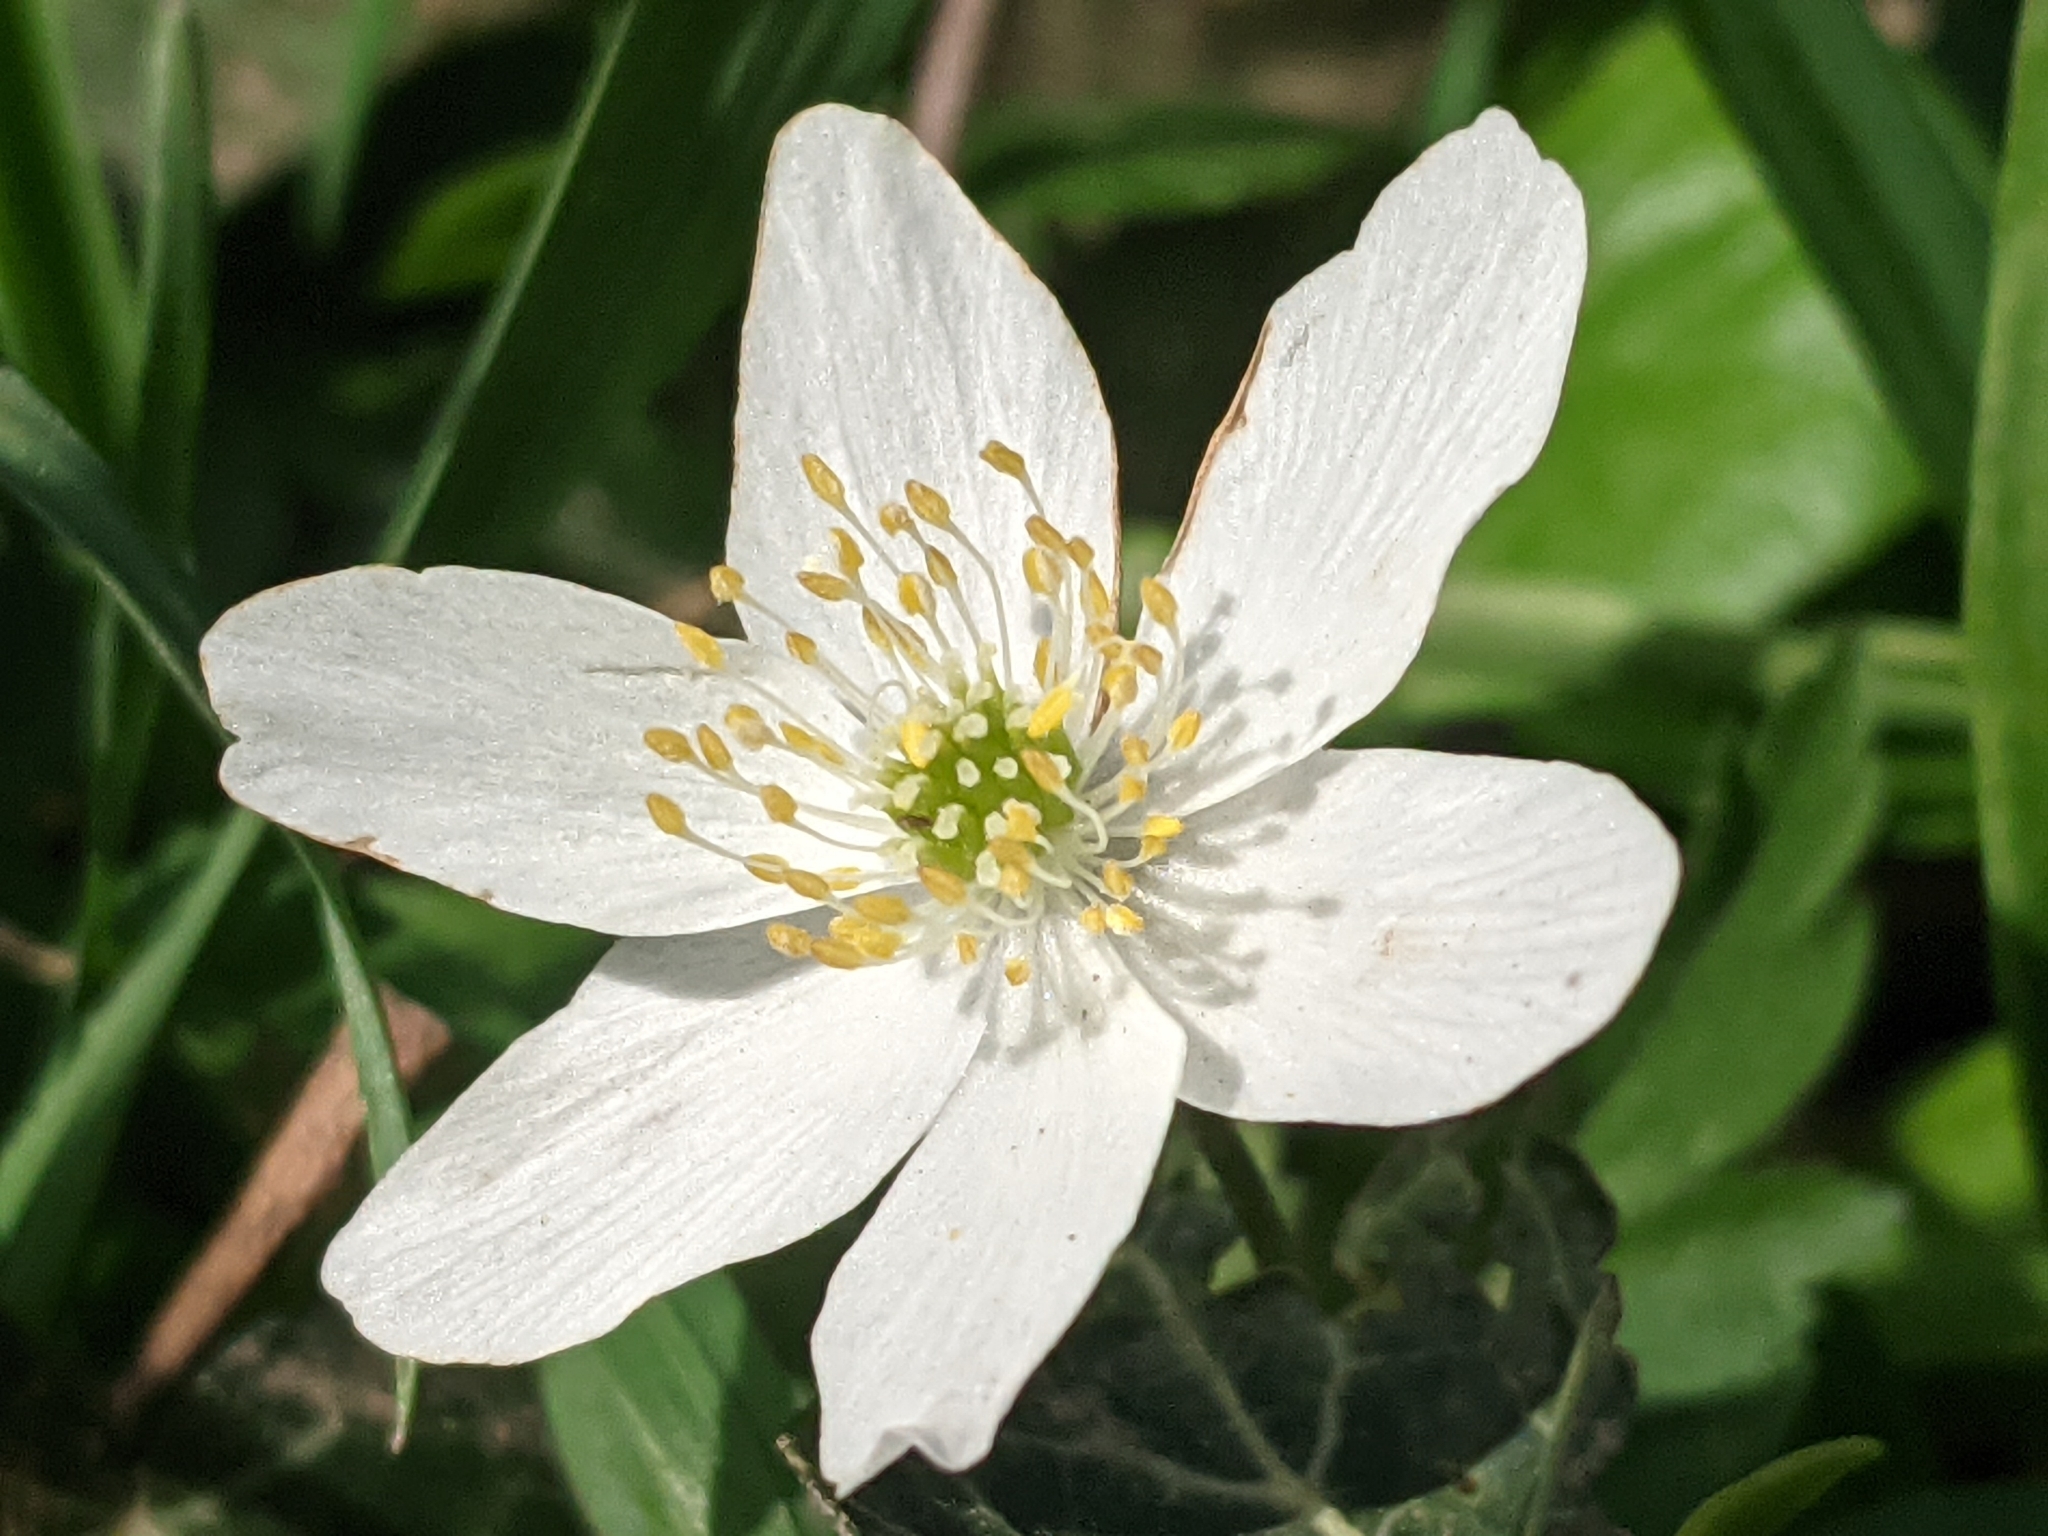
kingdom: Plantae
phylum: Tracheophyta
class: Magnoliopsida
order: Ranunculales
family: Ranunculaceae
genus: Anemone
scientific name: Anemone nemorosa
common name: Wood anemone
